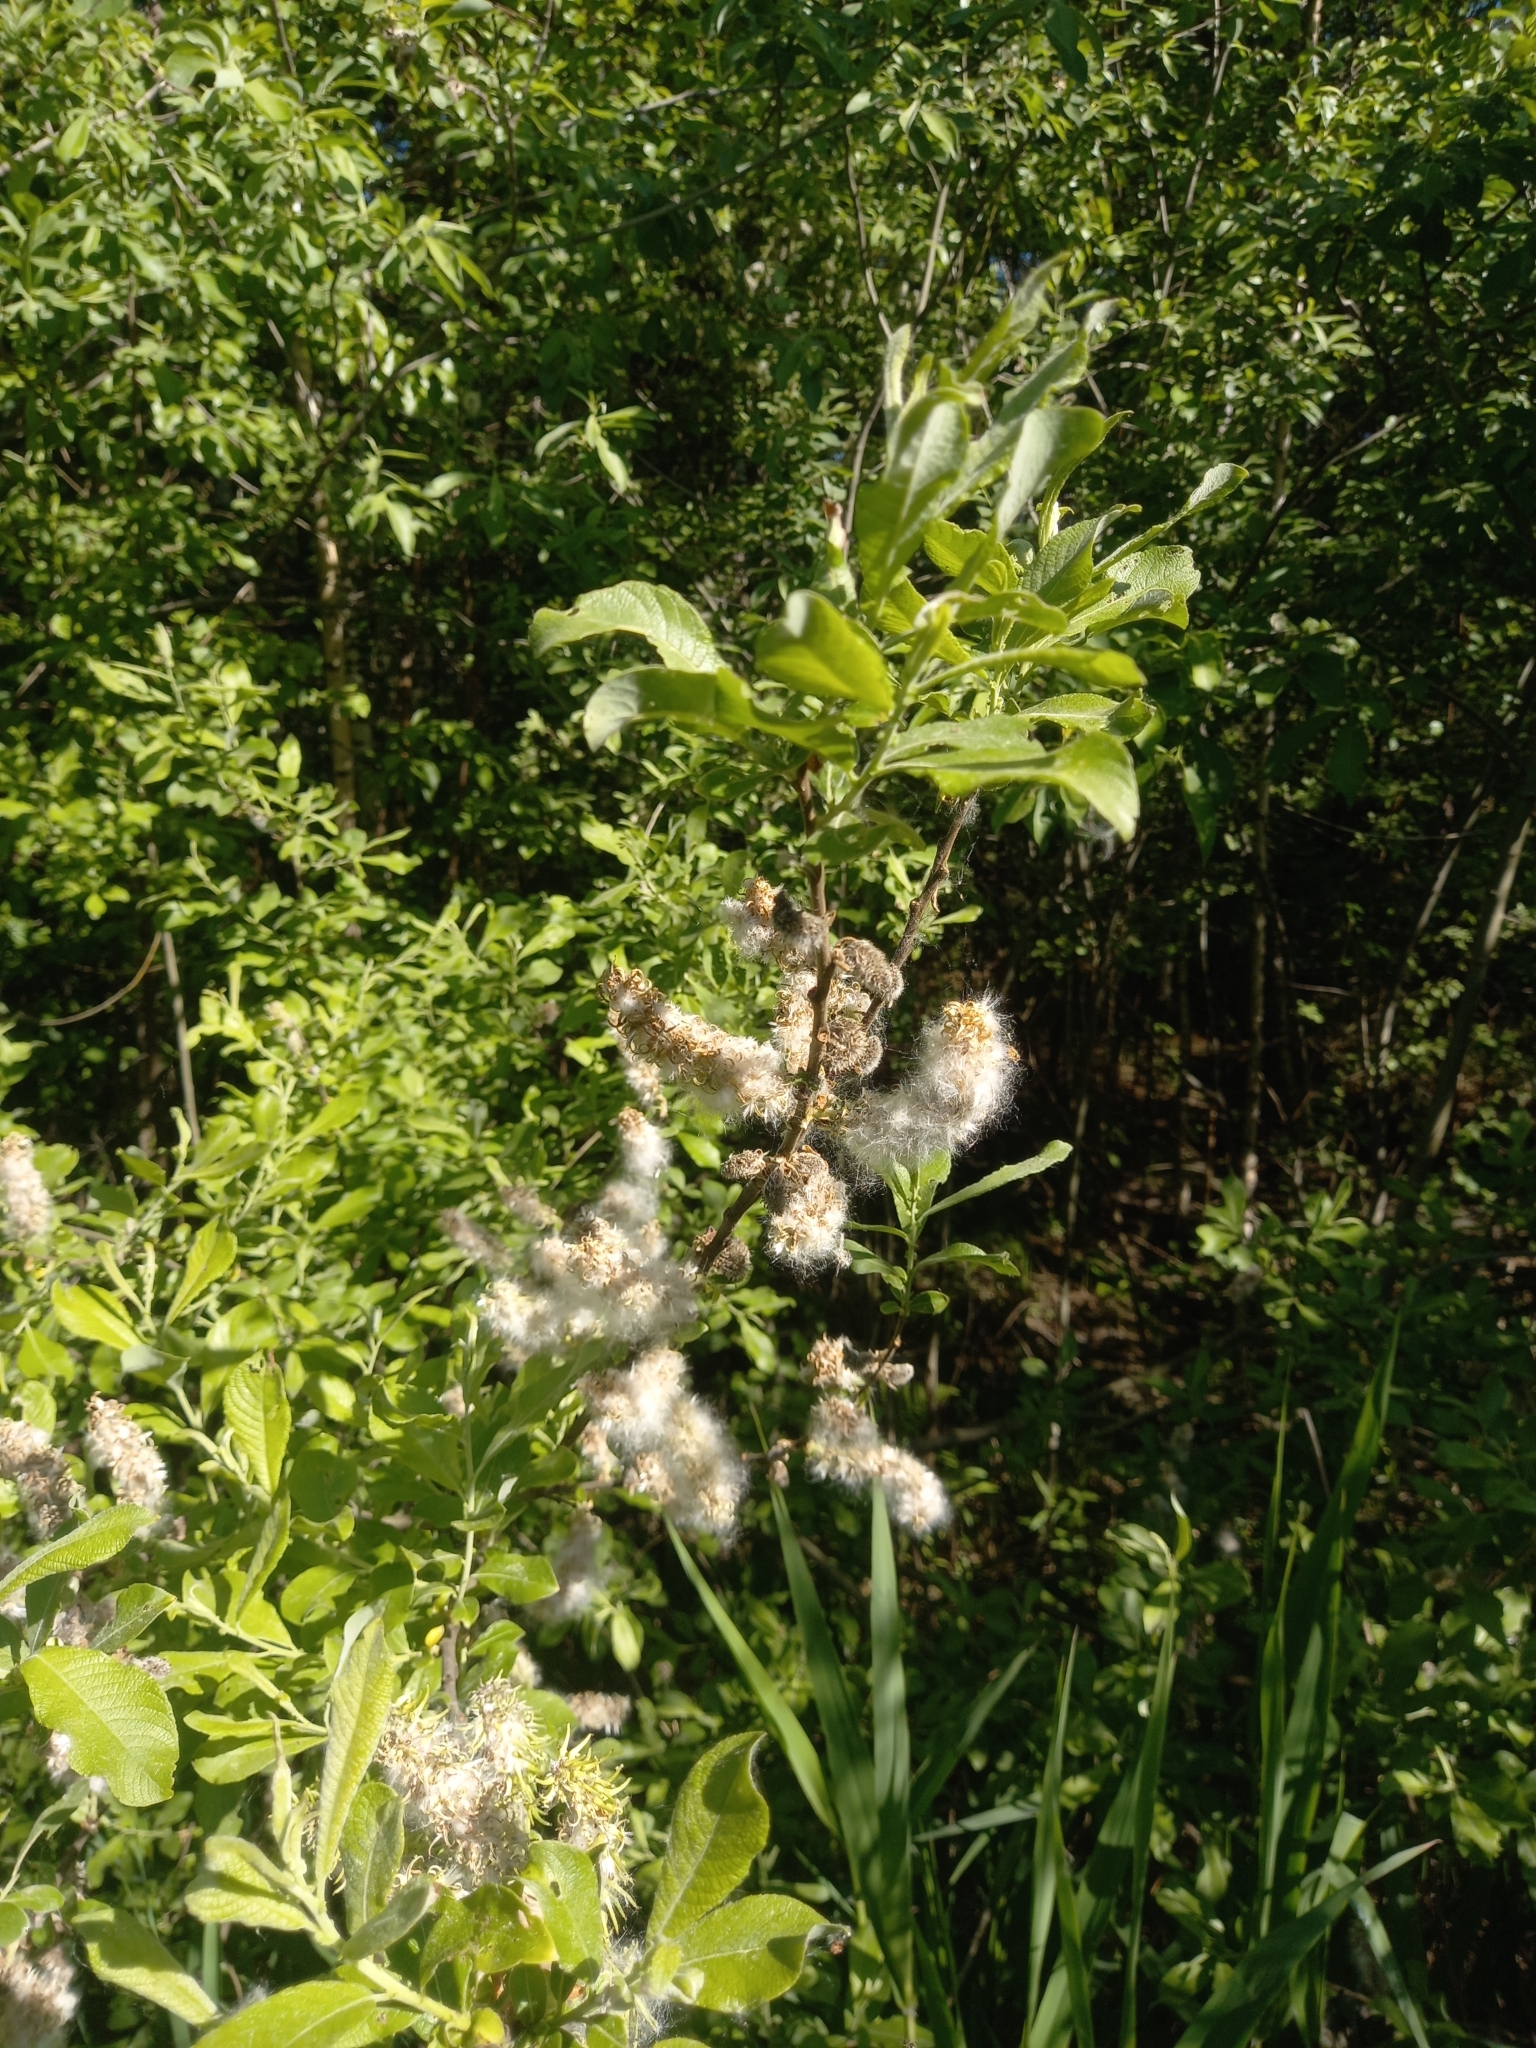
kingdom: Plantae
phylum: Tracheophyta
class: Magnoliopsida
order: Malpighiales
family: Salicaceae
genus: Salix
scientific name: Salix cinerea
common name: Common sallow
